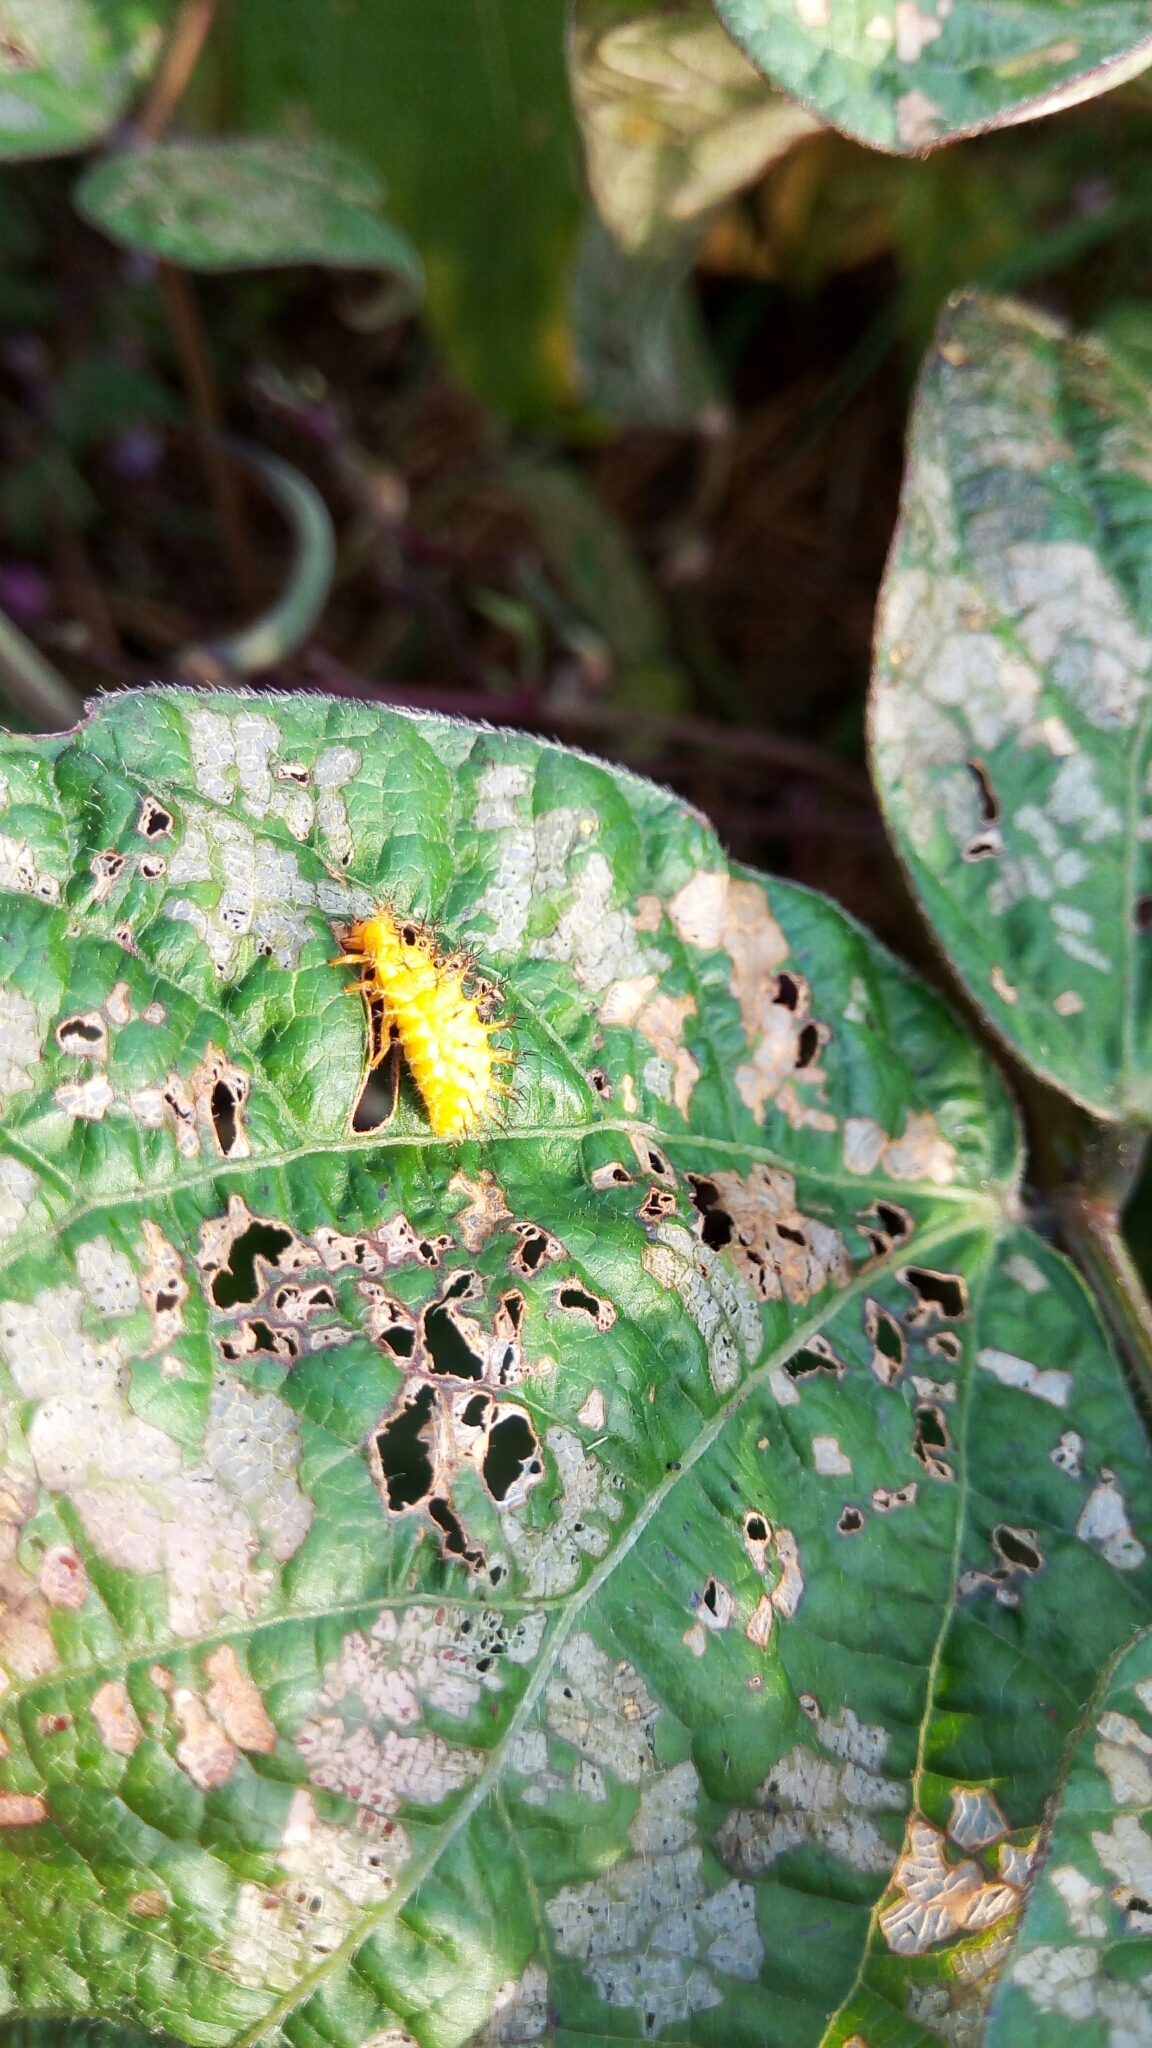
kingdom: Animalia
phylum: Arthropoda
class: Insecta
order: Coleoptera
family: Coccinellidae
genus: Epilachna
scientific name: Epilachna varivestis
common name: Ladybird beetle
